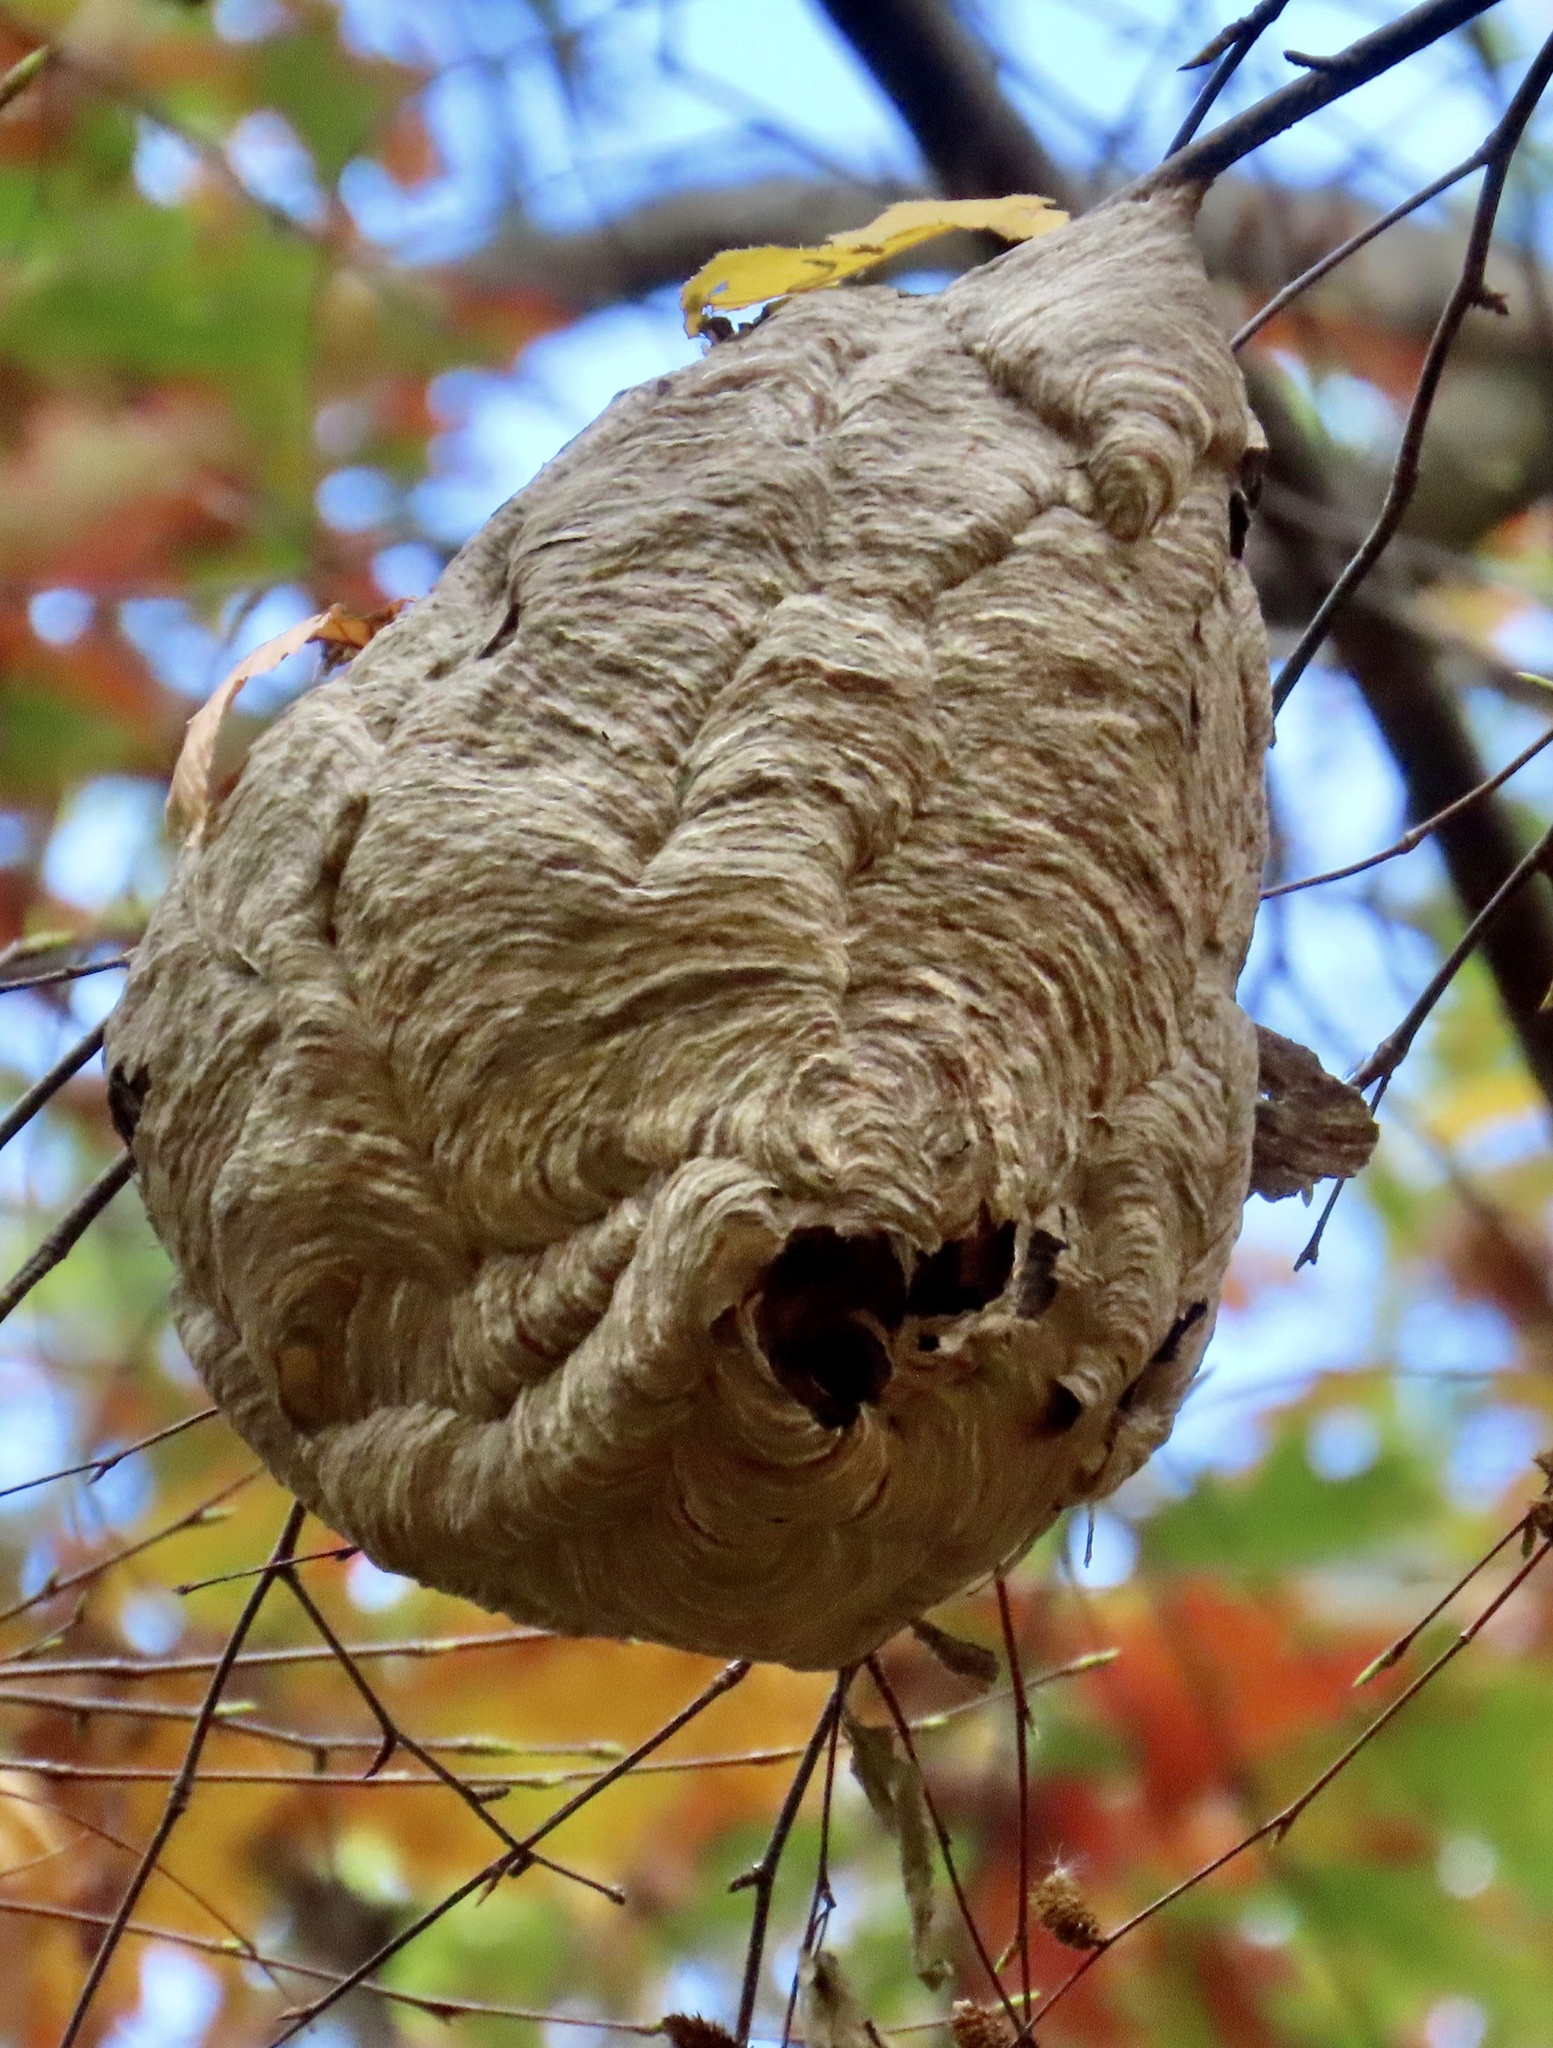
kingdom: Animalia
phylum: Arthropoda
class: Insecta
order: Hymenoptera
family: Vespidae
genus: Dolichovespula
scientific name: Dolichovespula maculata
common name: Bald-faced hornet
